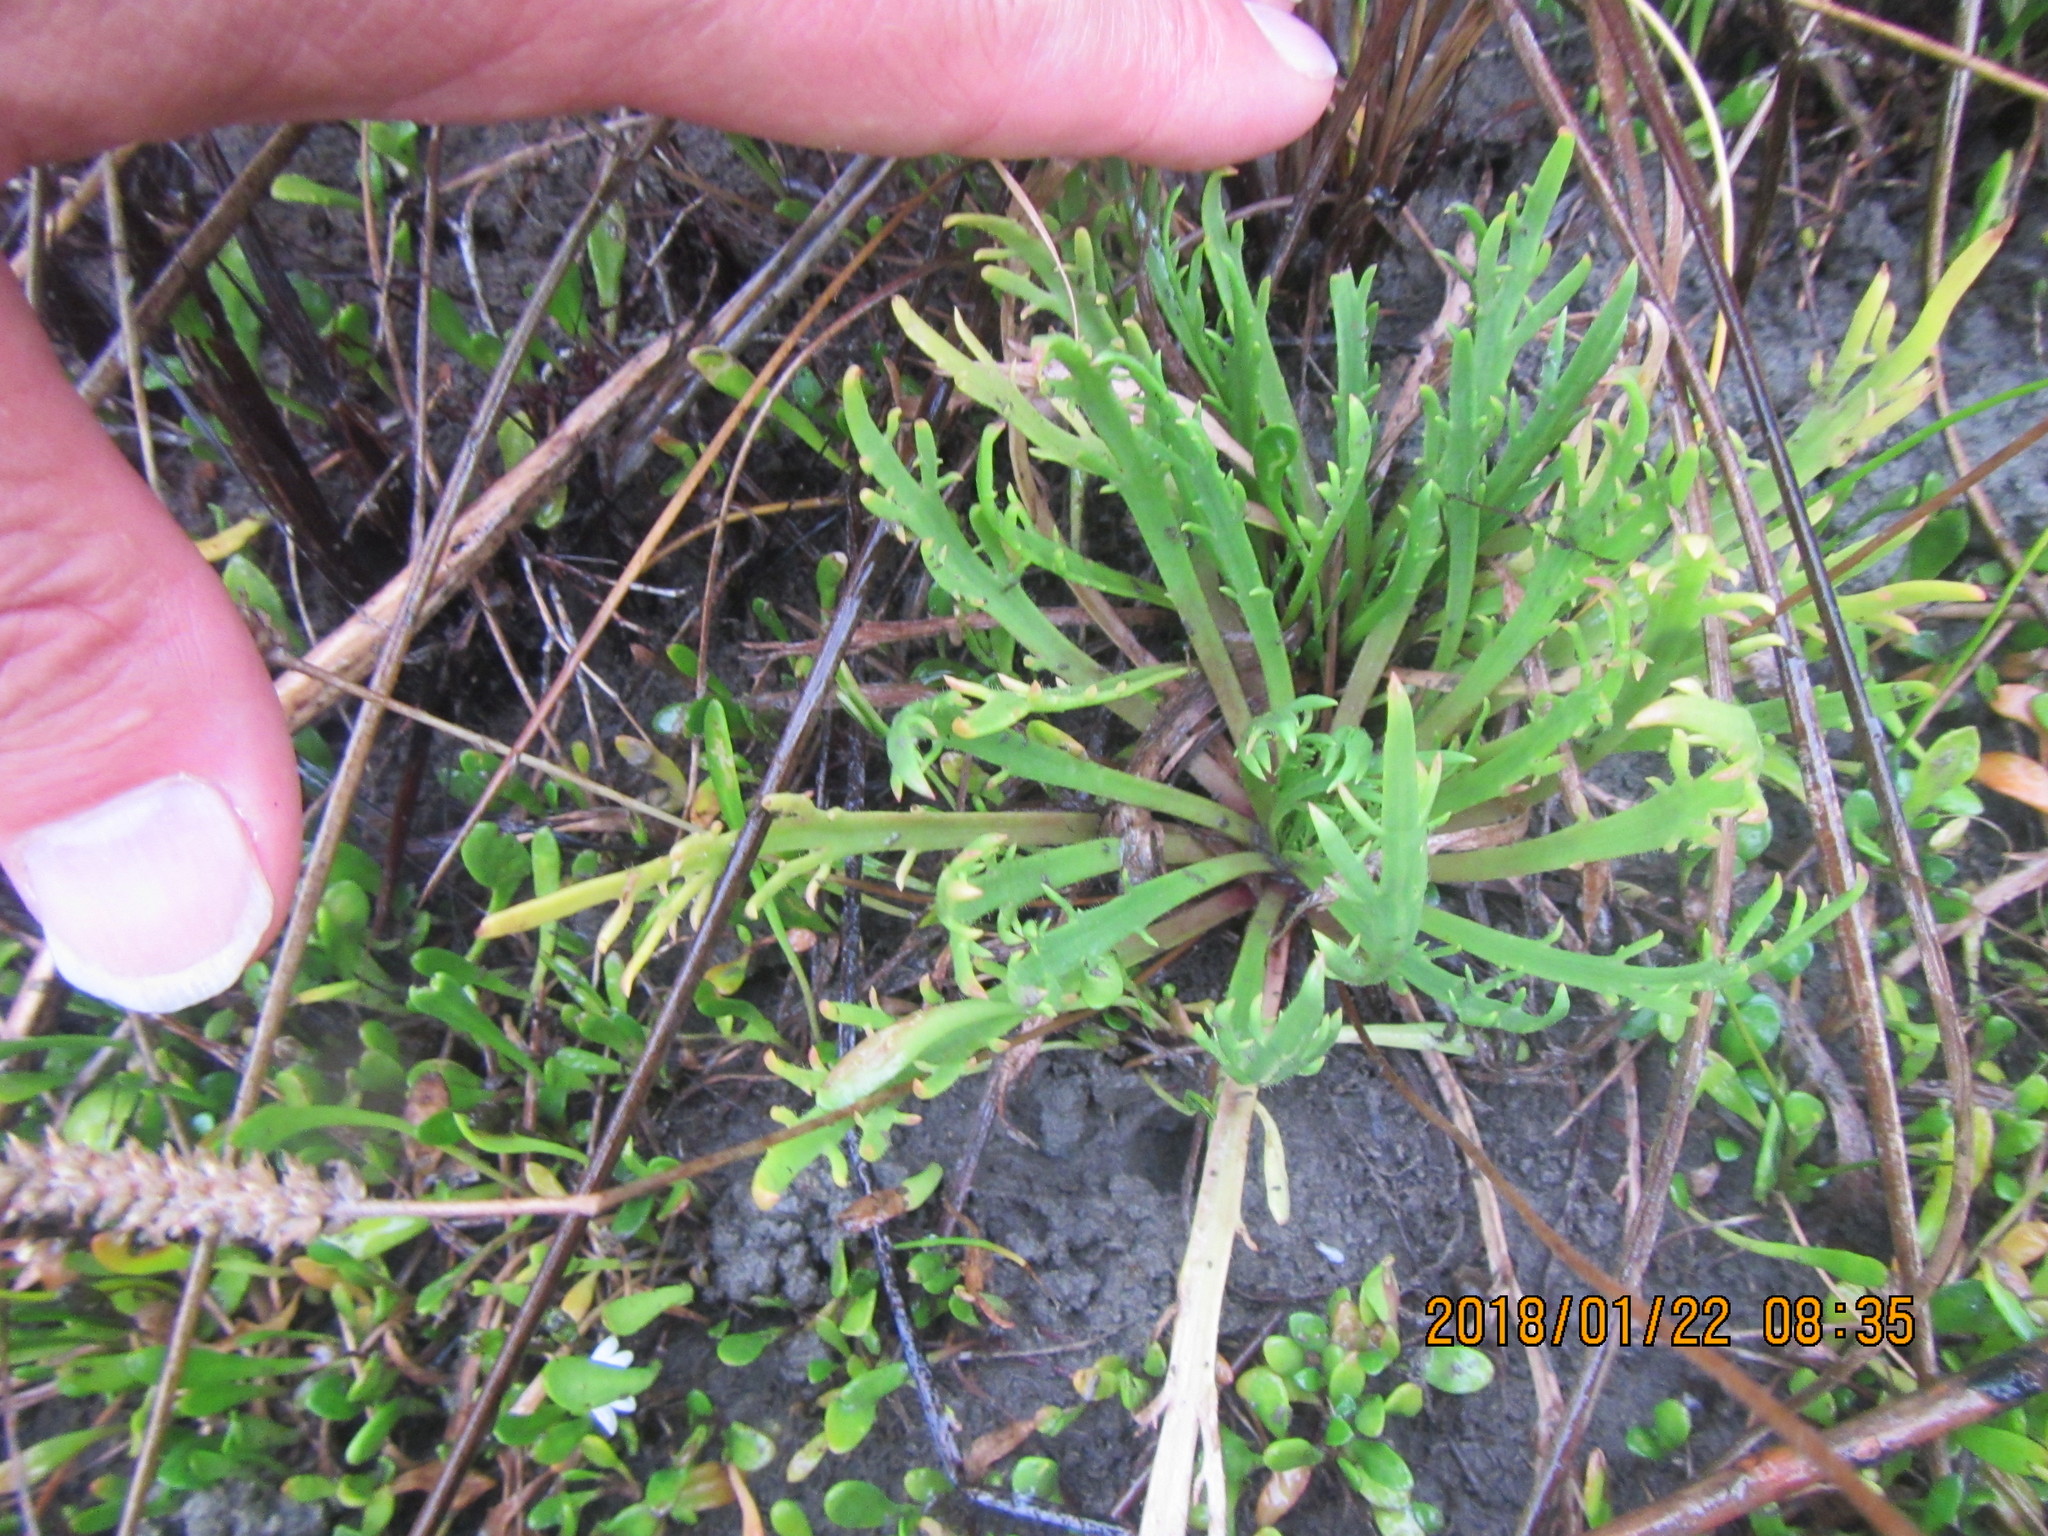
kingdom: Plantae
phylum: Tracheophyta
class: Magnoliopsida
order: Lamiales
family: Plantaginaceae
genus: Plantago
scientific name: Plantago coronopus
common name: Buck's-horn plantain
